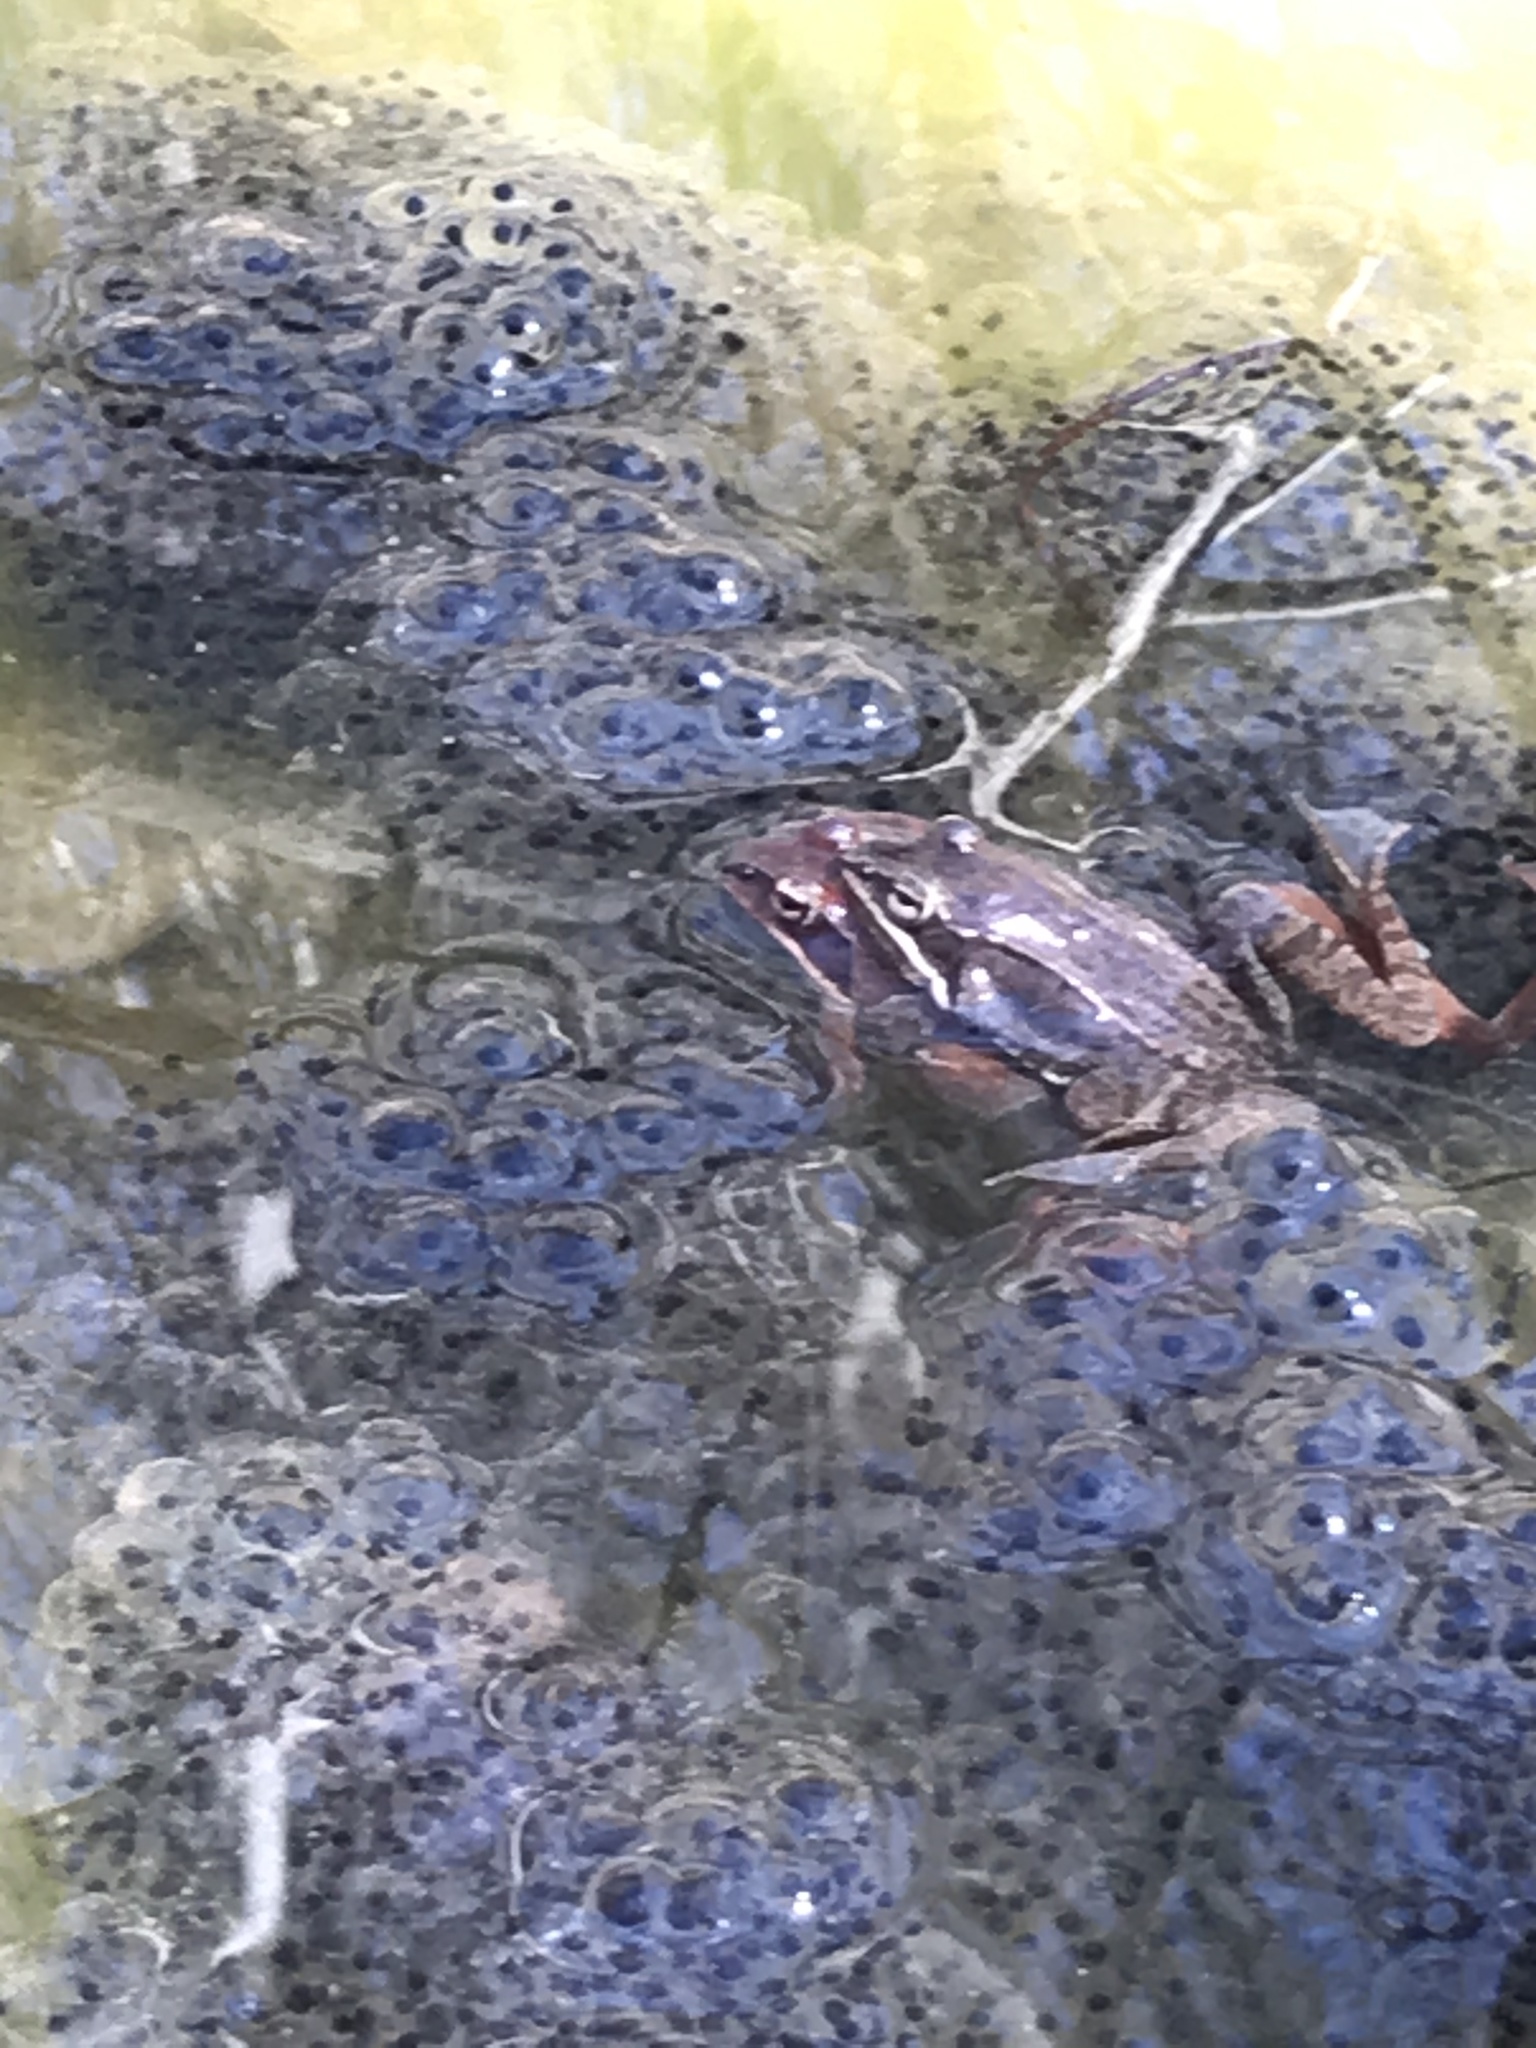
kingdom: Animalia
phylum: Chordata
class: Amphibia
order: Anura
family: Ranidae
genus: Lithobates
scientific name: Lithobates sylvaticus
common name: Wood frog
